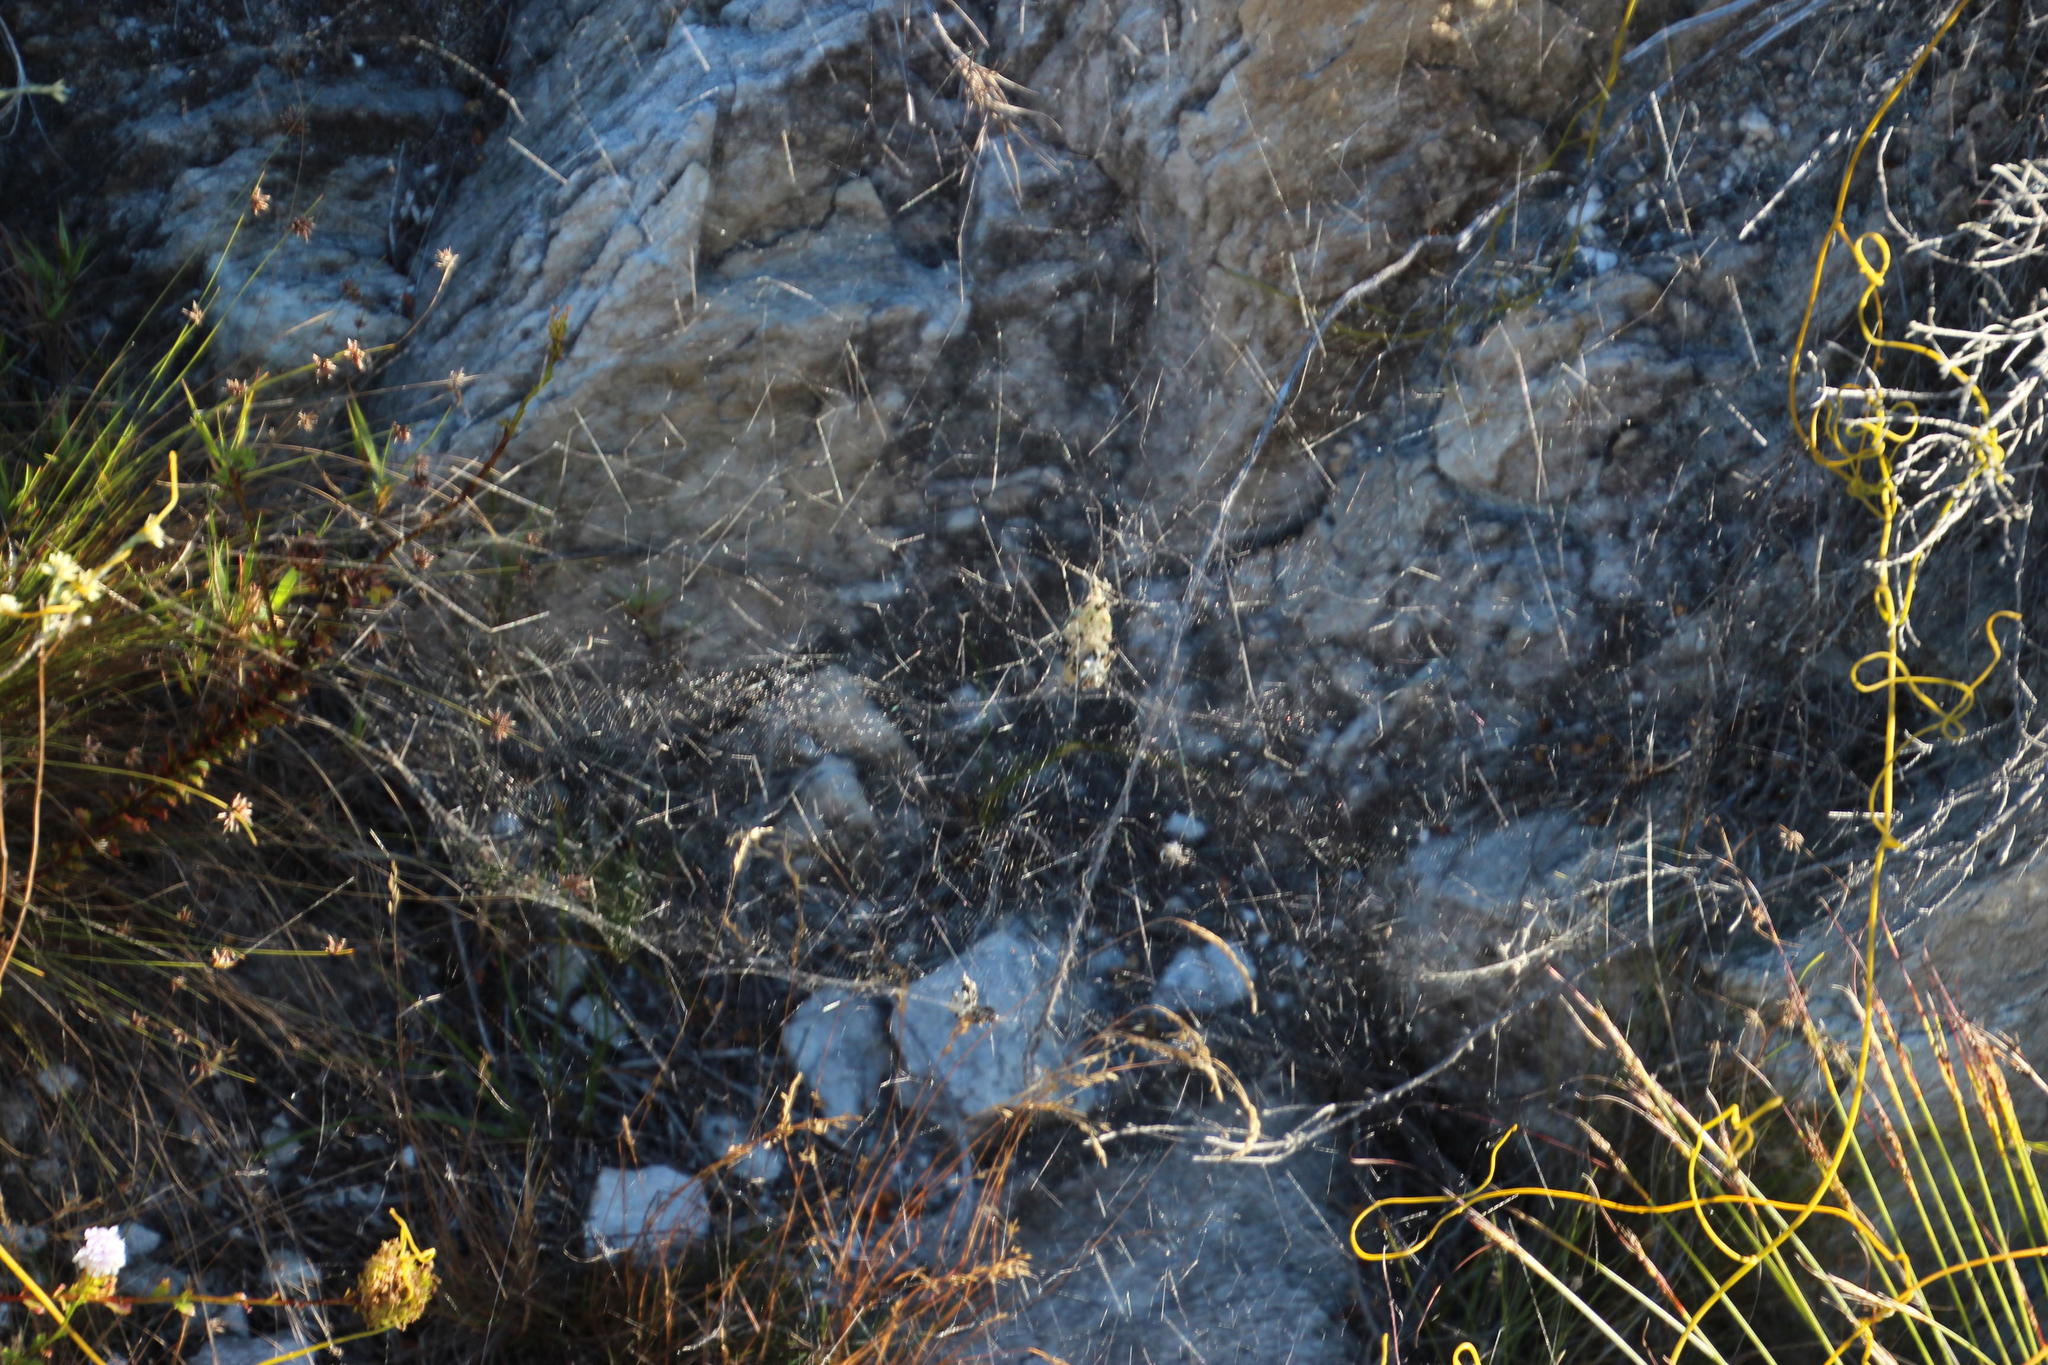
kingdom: Animalia
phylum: Arthropoda
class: Arachnida
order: Araneae
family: Araneidae
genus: Cyrtophora
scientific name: Cyrtophora citricola
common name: Orb weavers
